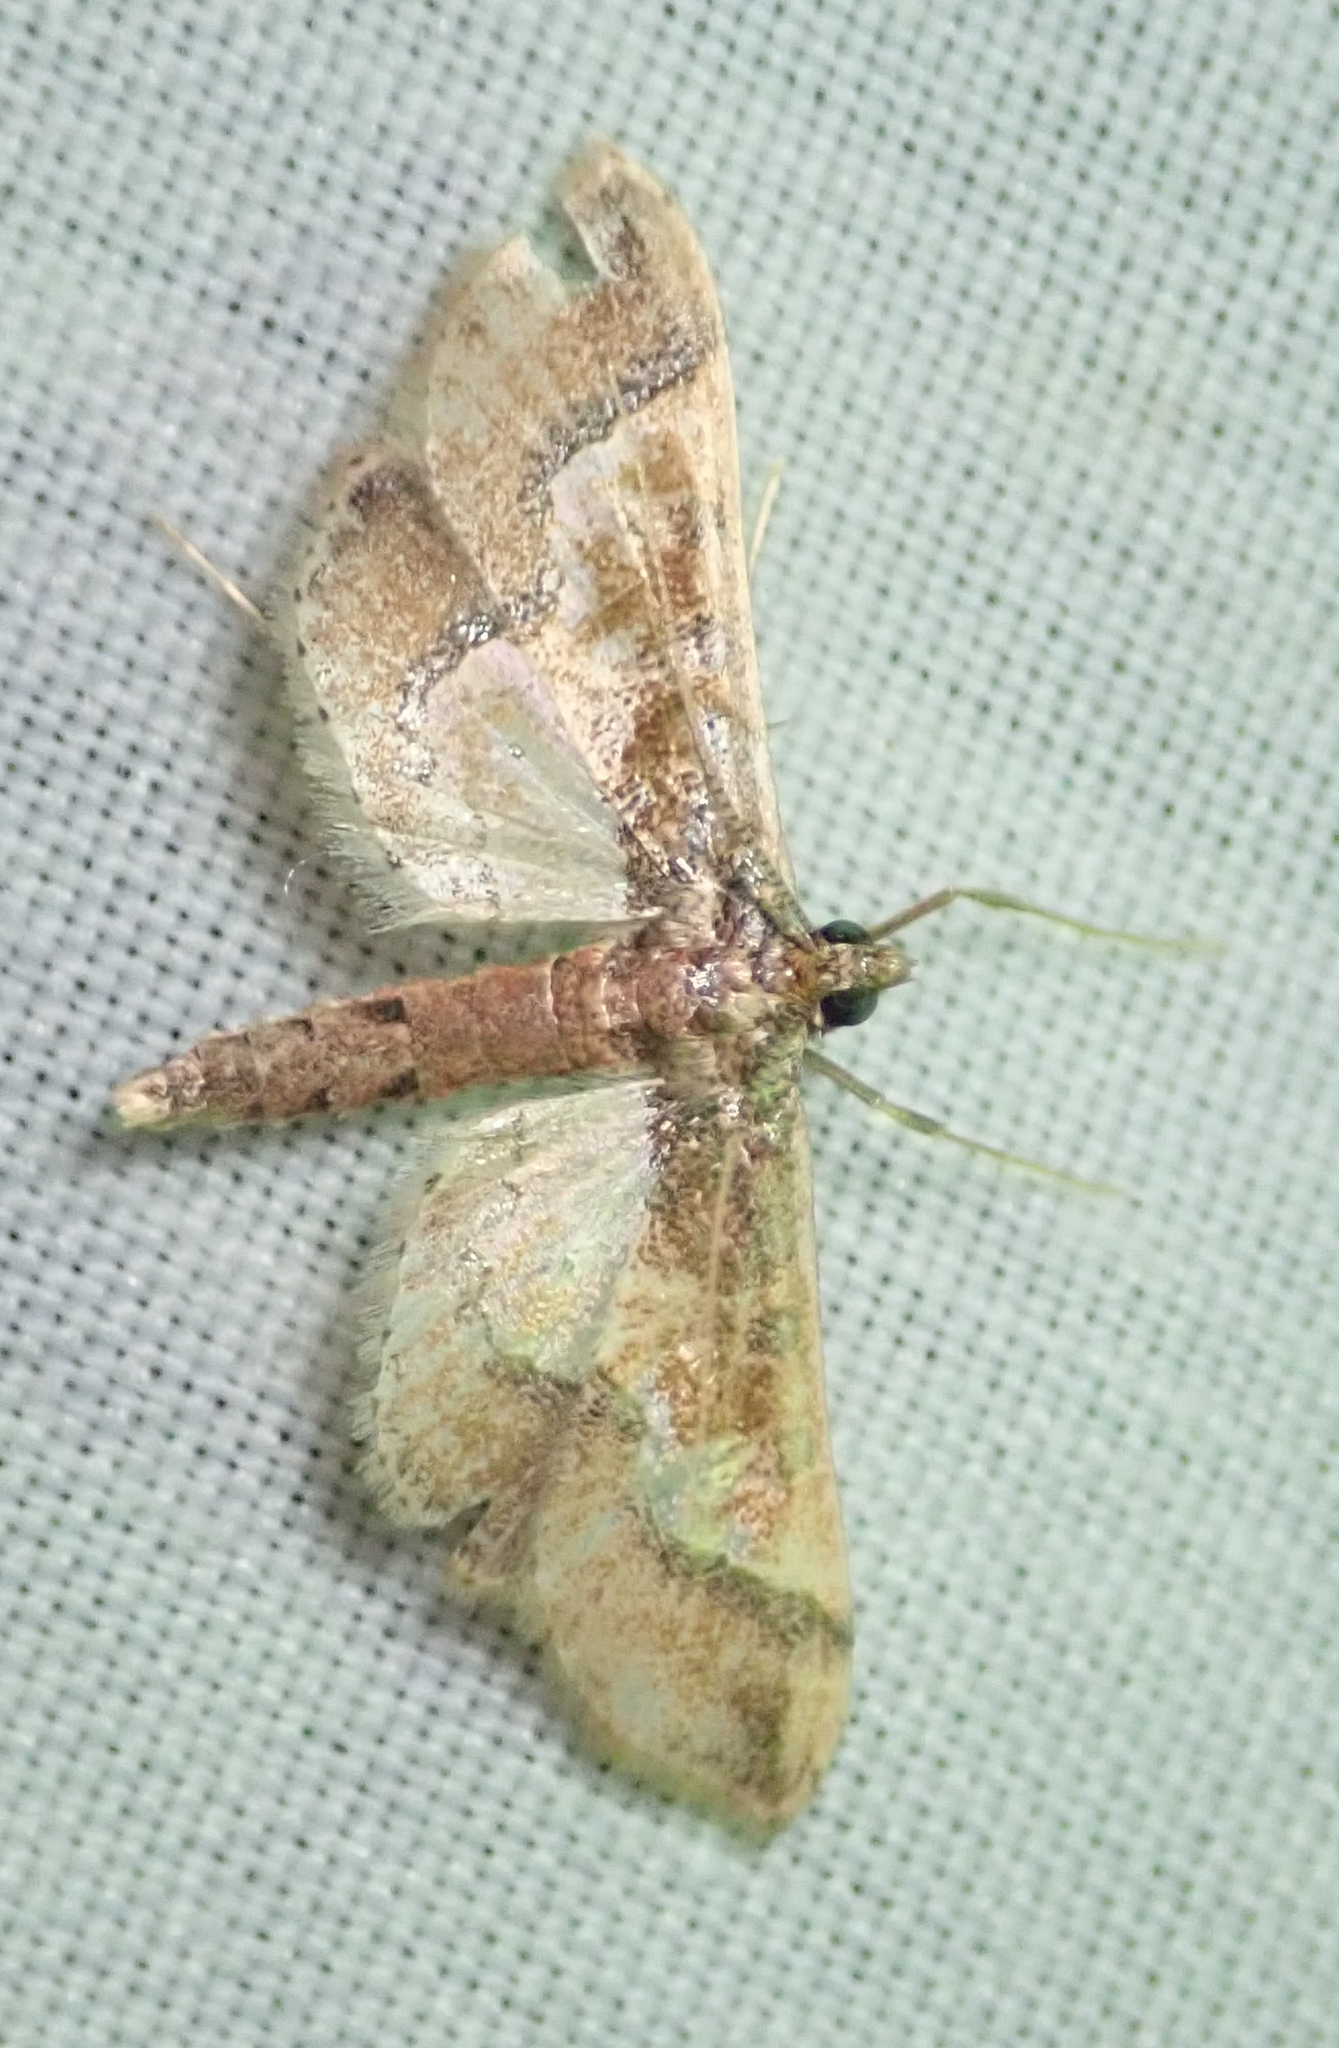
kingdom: Animalia
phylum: Arthropoda
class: Insecta
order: Lepidoptera
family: Crambidae
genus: Hydriris
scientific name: Hydriris ornatalis
